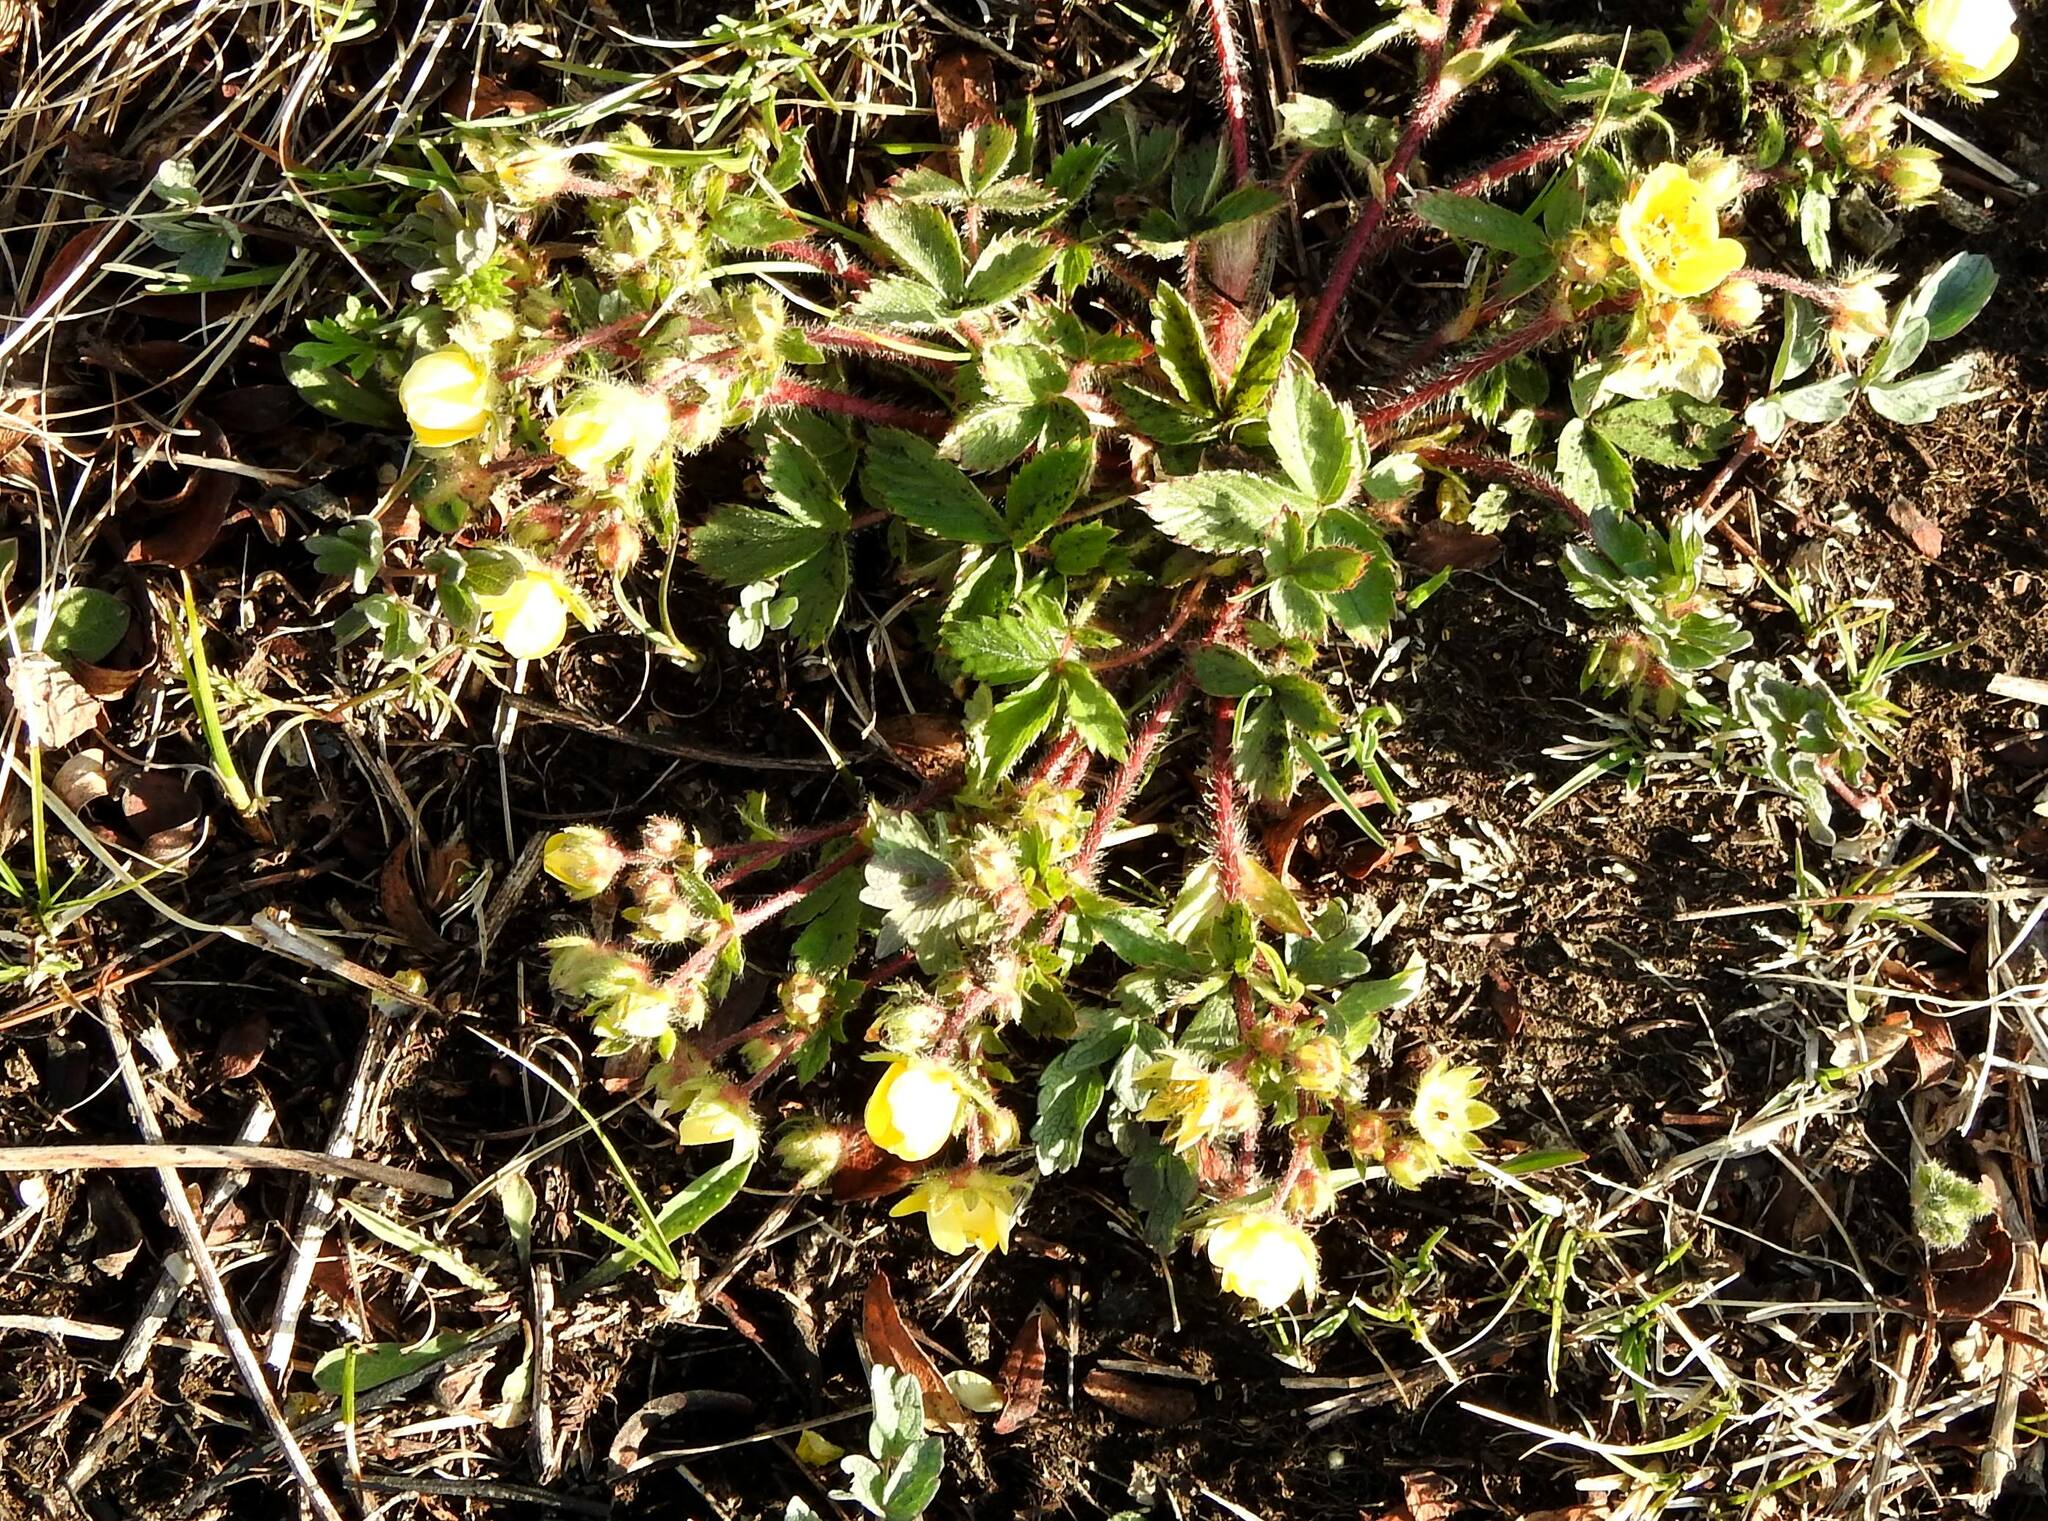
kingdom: Plantae
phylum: Tracheophyta
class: Magnoliopsida
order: Rosales
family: Rosaceae
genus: Potentilla
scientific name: Potentilla fragarioides
